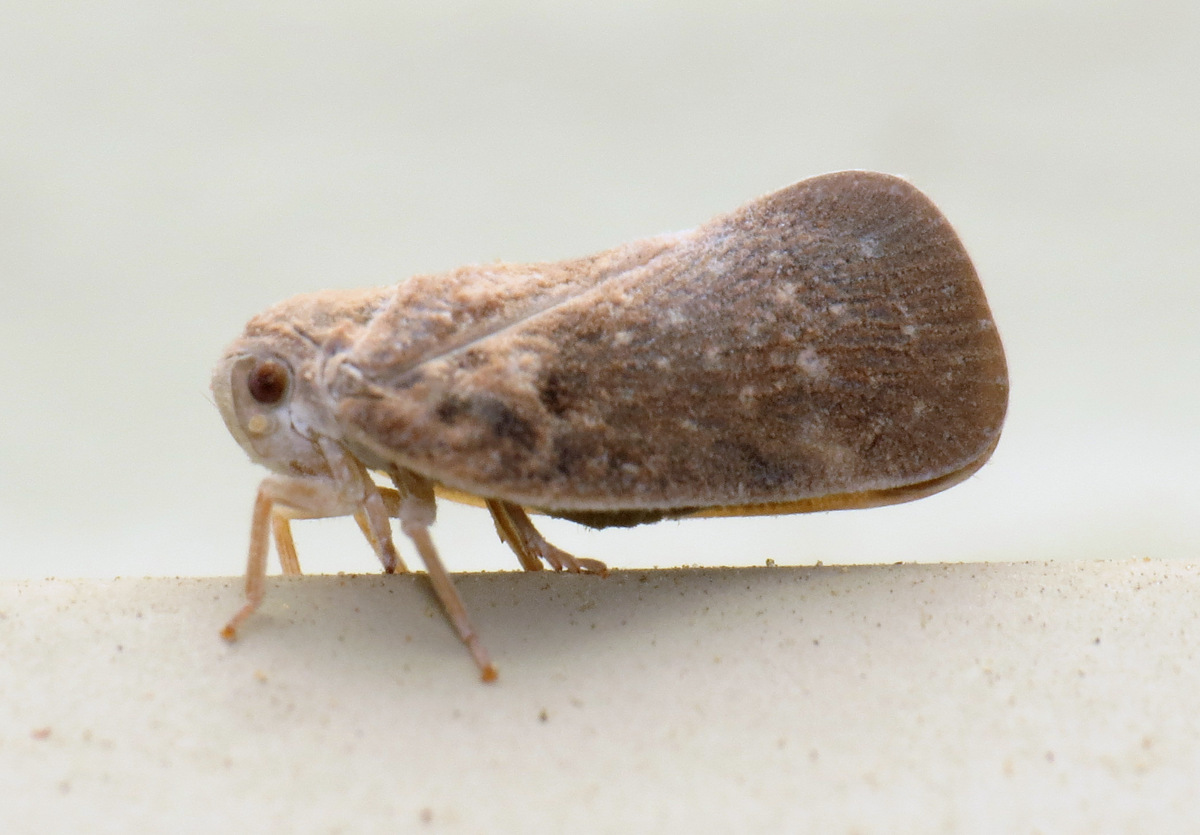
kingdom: Animalia
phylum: Arthropoda
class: Insecta
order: Hemiptera
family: Flatidae
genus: Metcalfa
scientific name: Metcalfa pruinosa
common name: Citrus flatid planthopper
